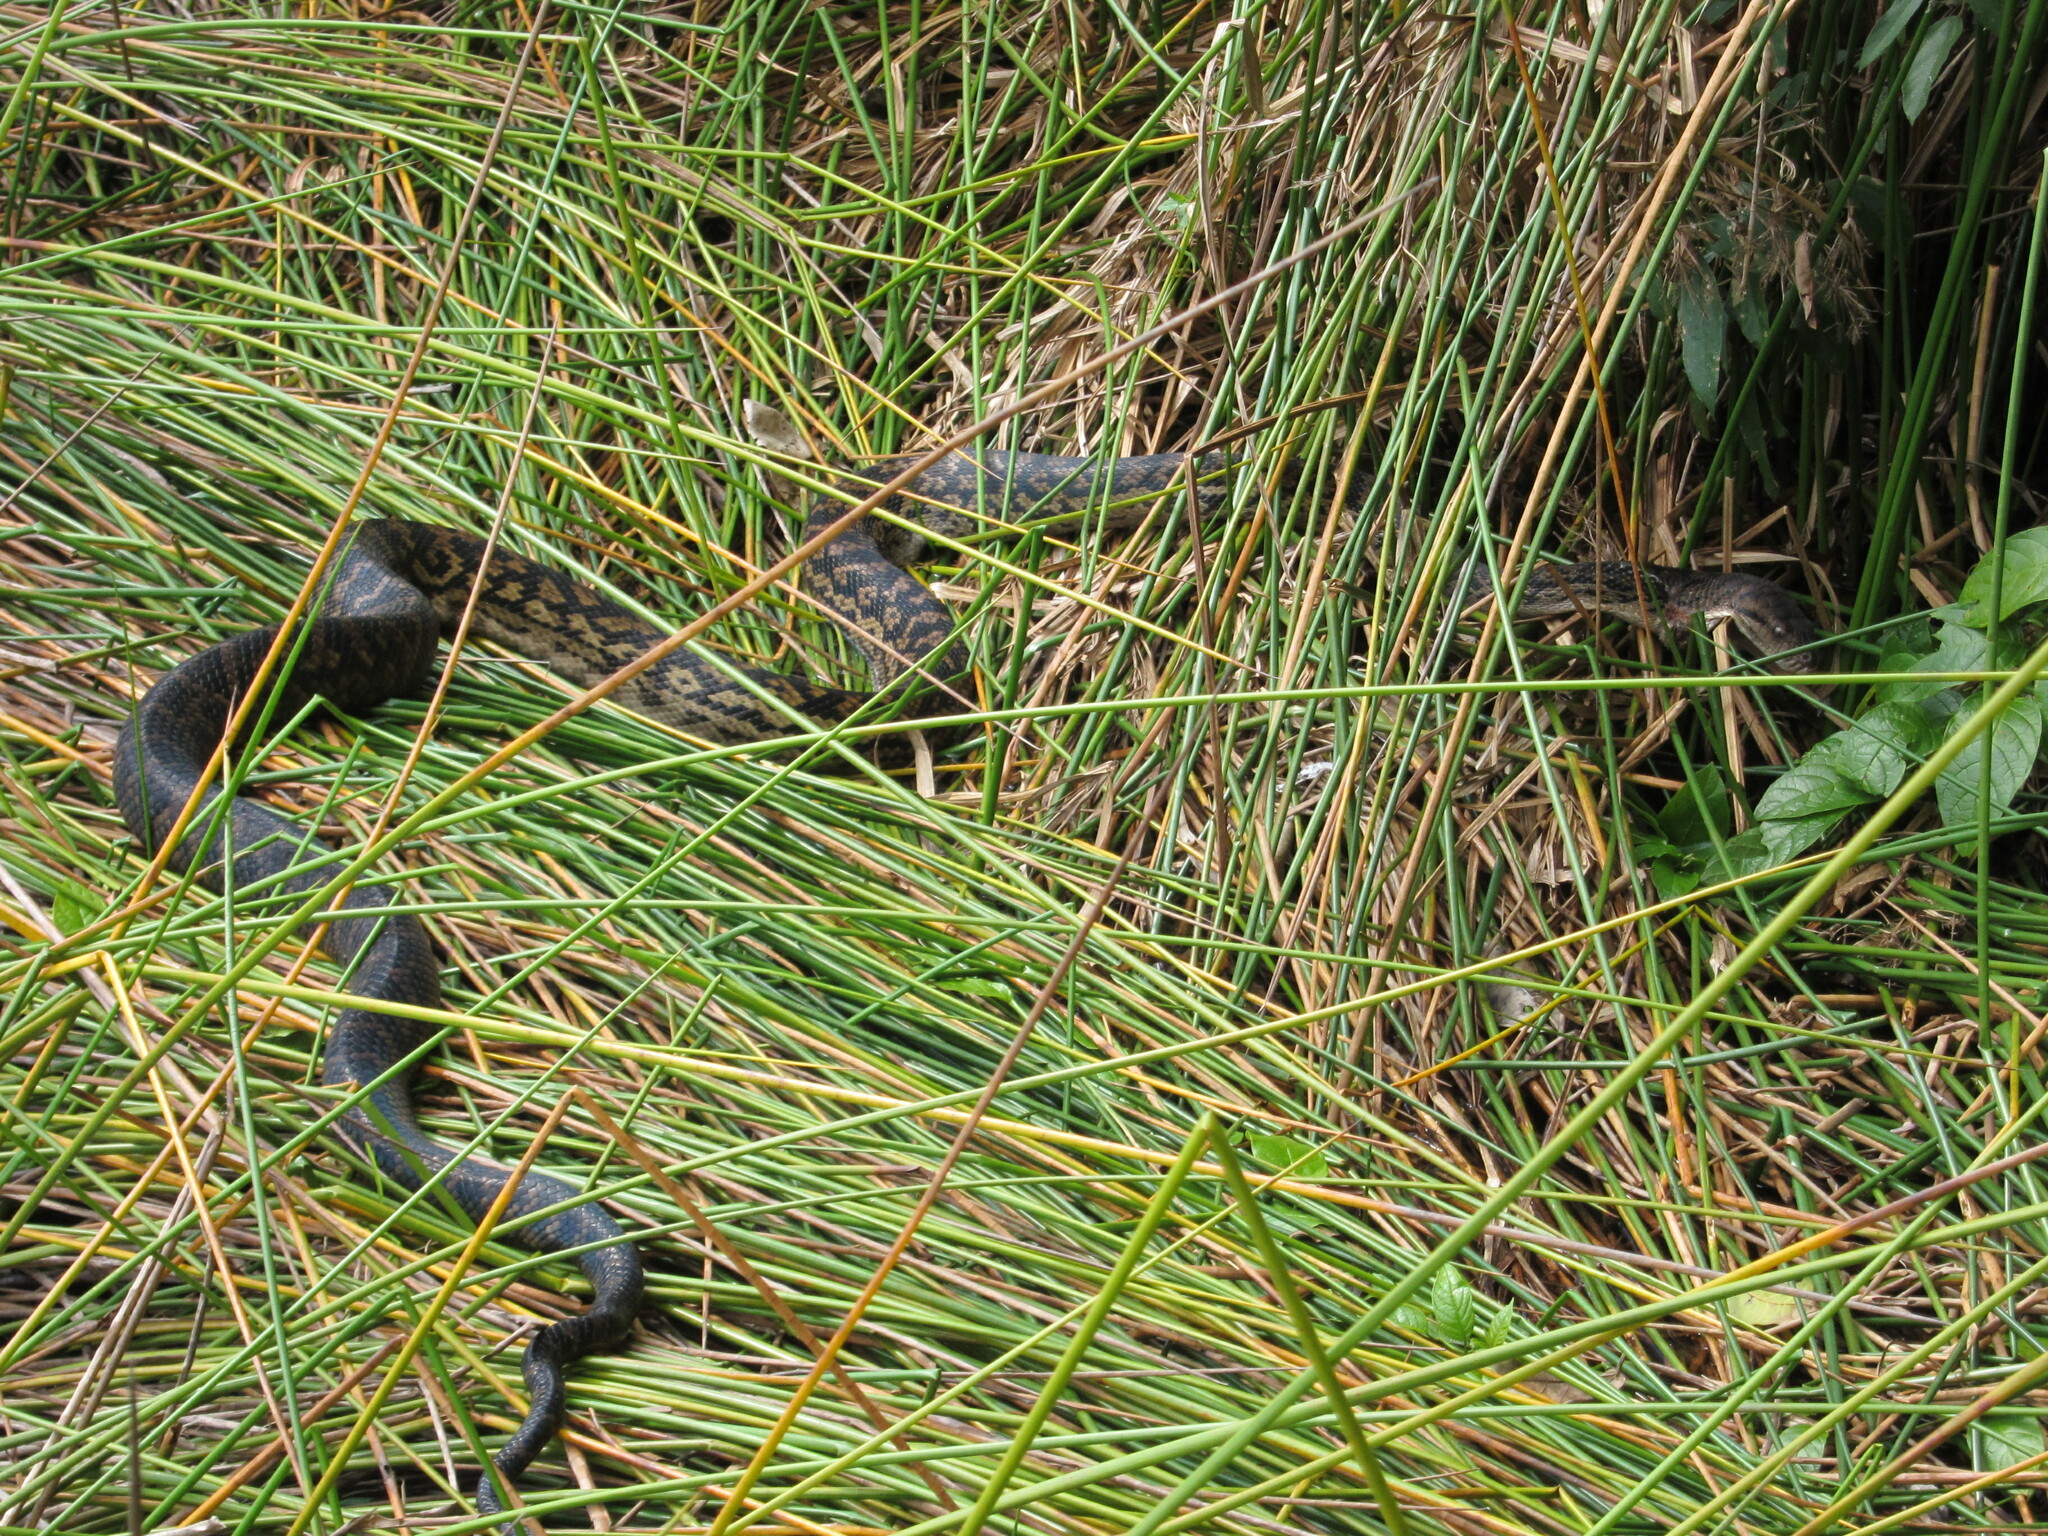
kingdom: Animalia
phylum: Chordata
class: Squamata
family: Pythonidae
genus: Simalia
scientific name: Simalia kinghorni
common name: Scrub python
